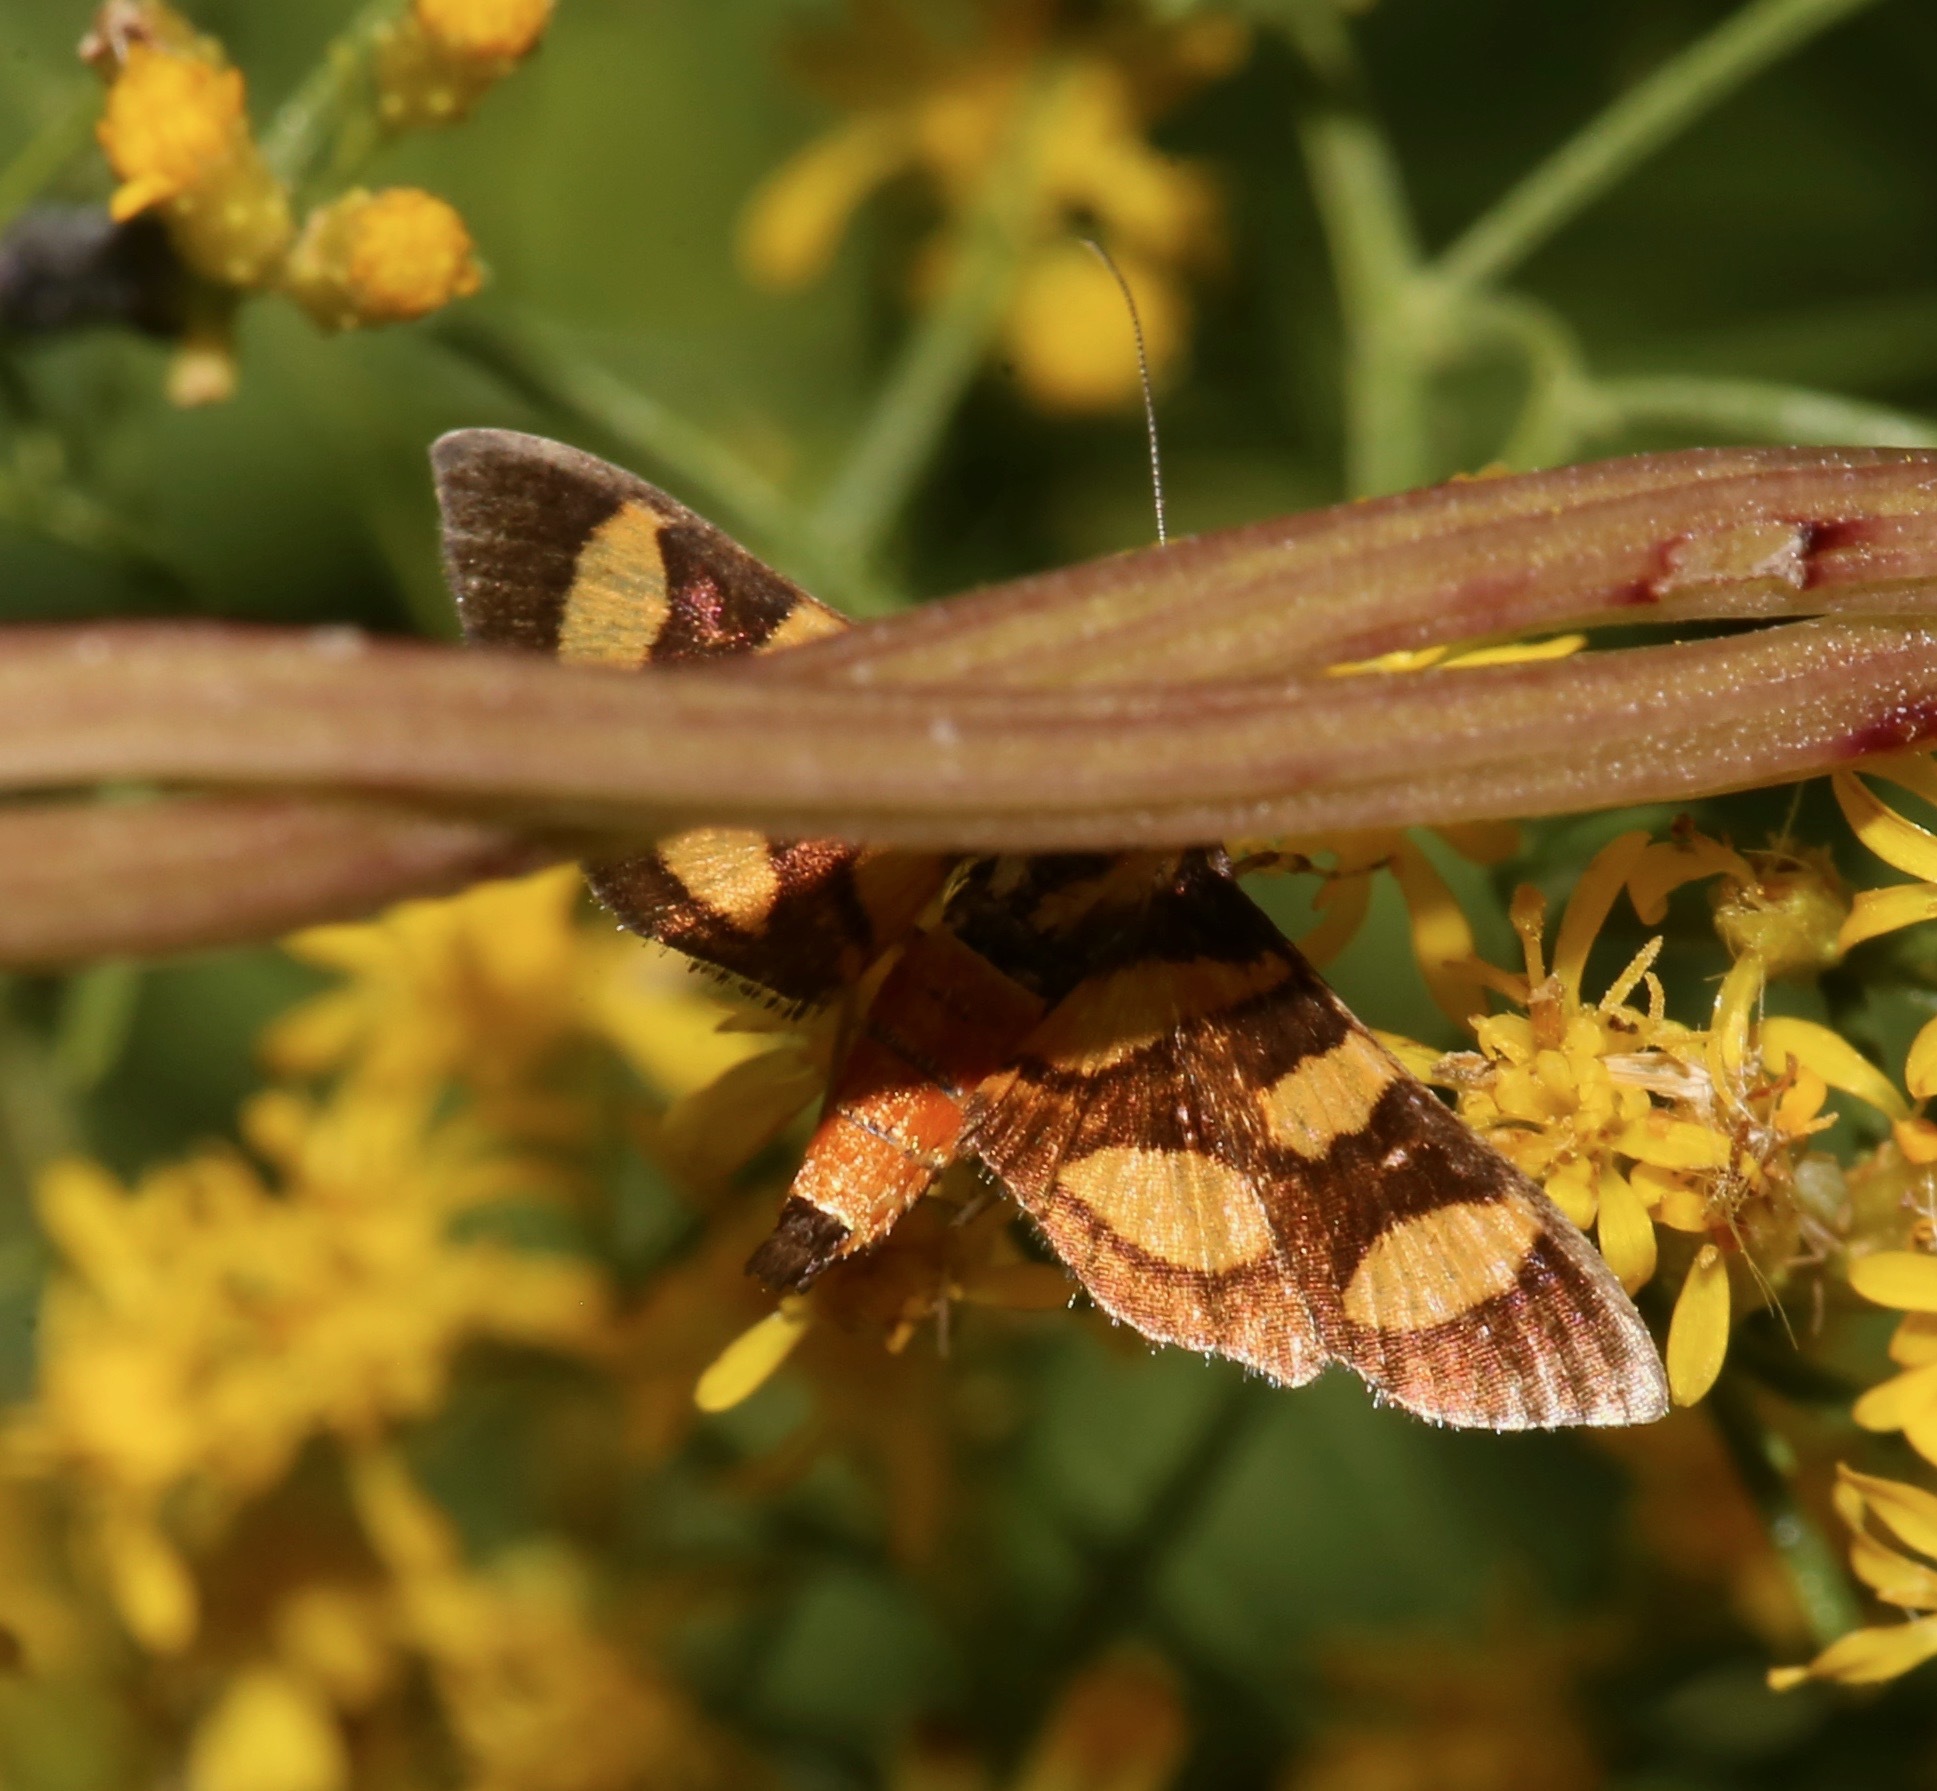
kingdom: Animalia
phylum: Arthropoda
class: Insecta
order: Lepidoptera
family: Crambidae
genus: Syngamia
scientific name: Syngamia florella
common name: Orange-spotted flower moth
